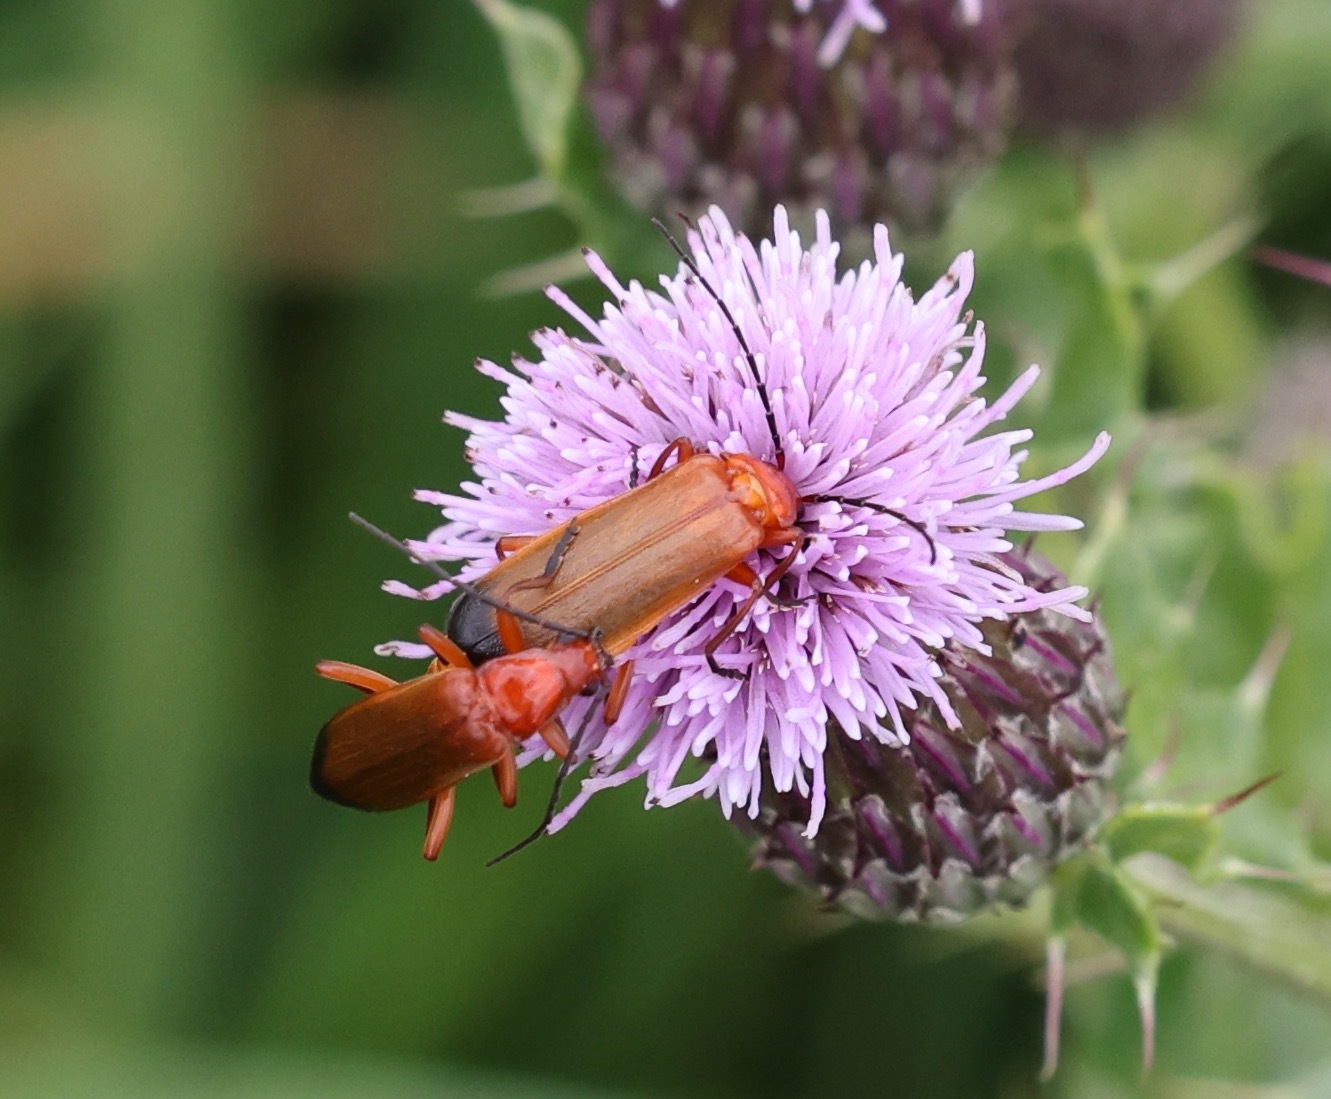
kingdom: Animalia
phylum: Arthropoda
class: Insecta
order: Coleoptera
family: Cantharidae
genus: Rhagonycha
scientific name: Rhagonycha fulva
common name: Common red soldier beetle
